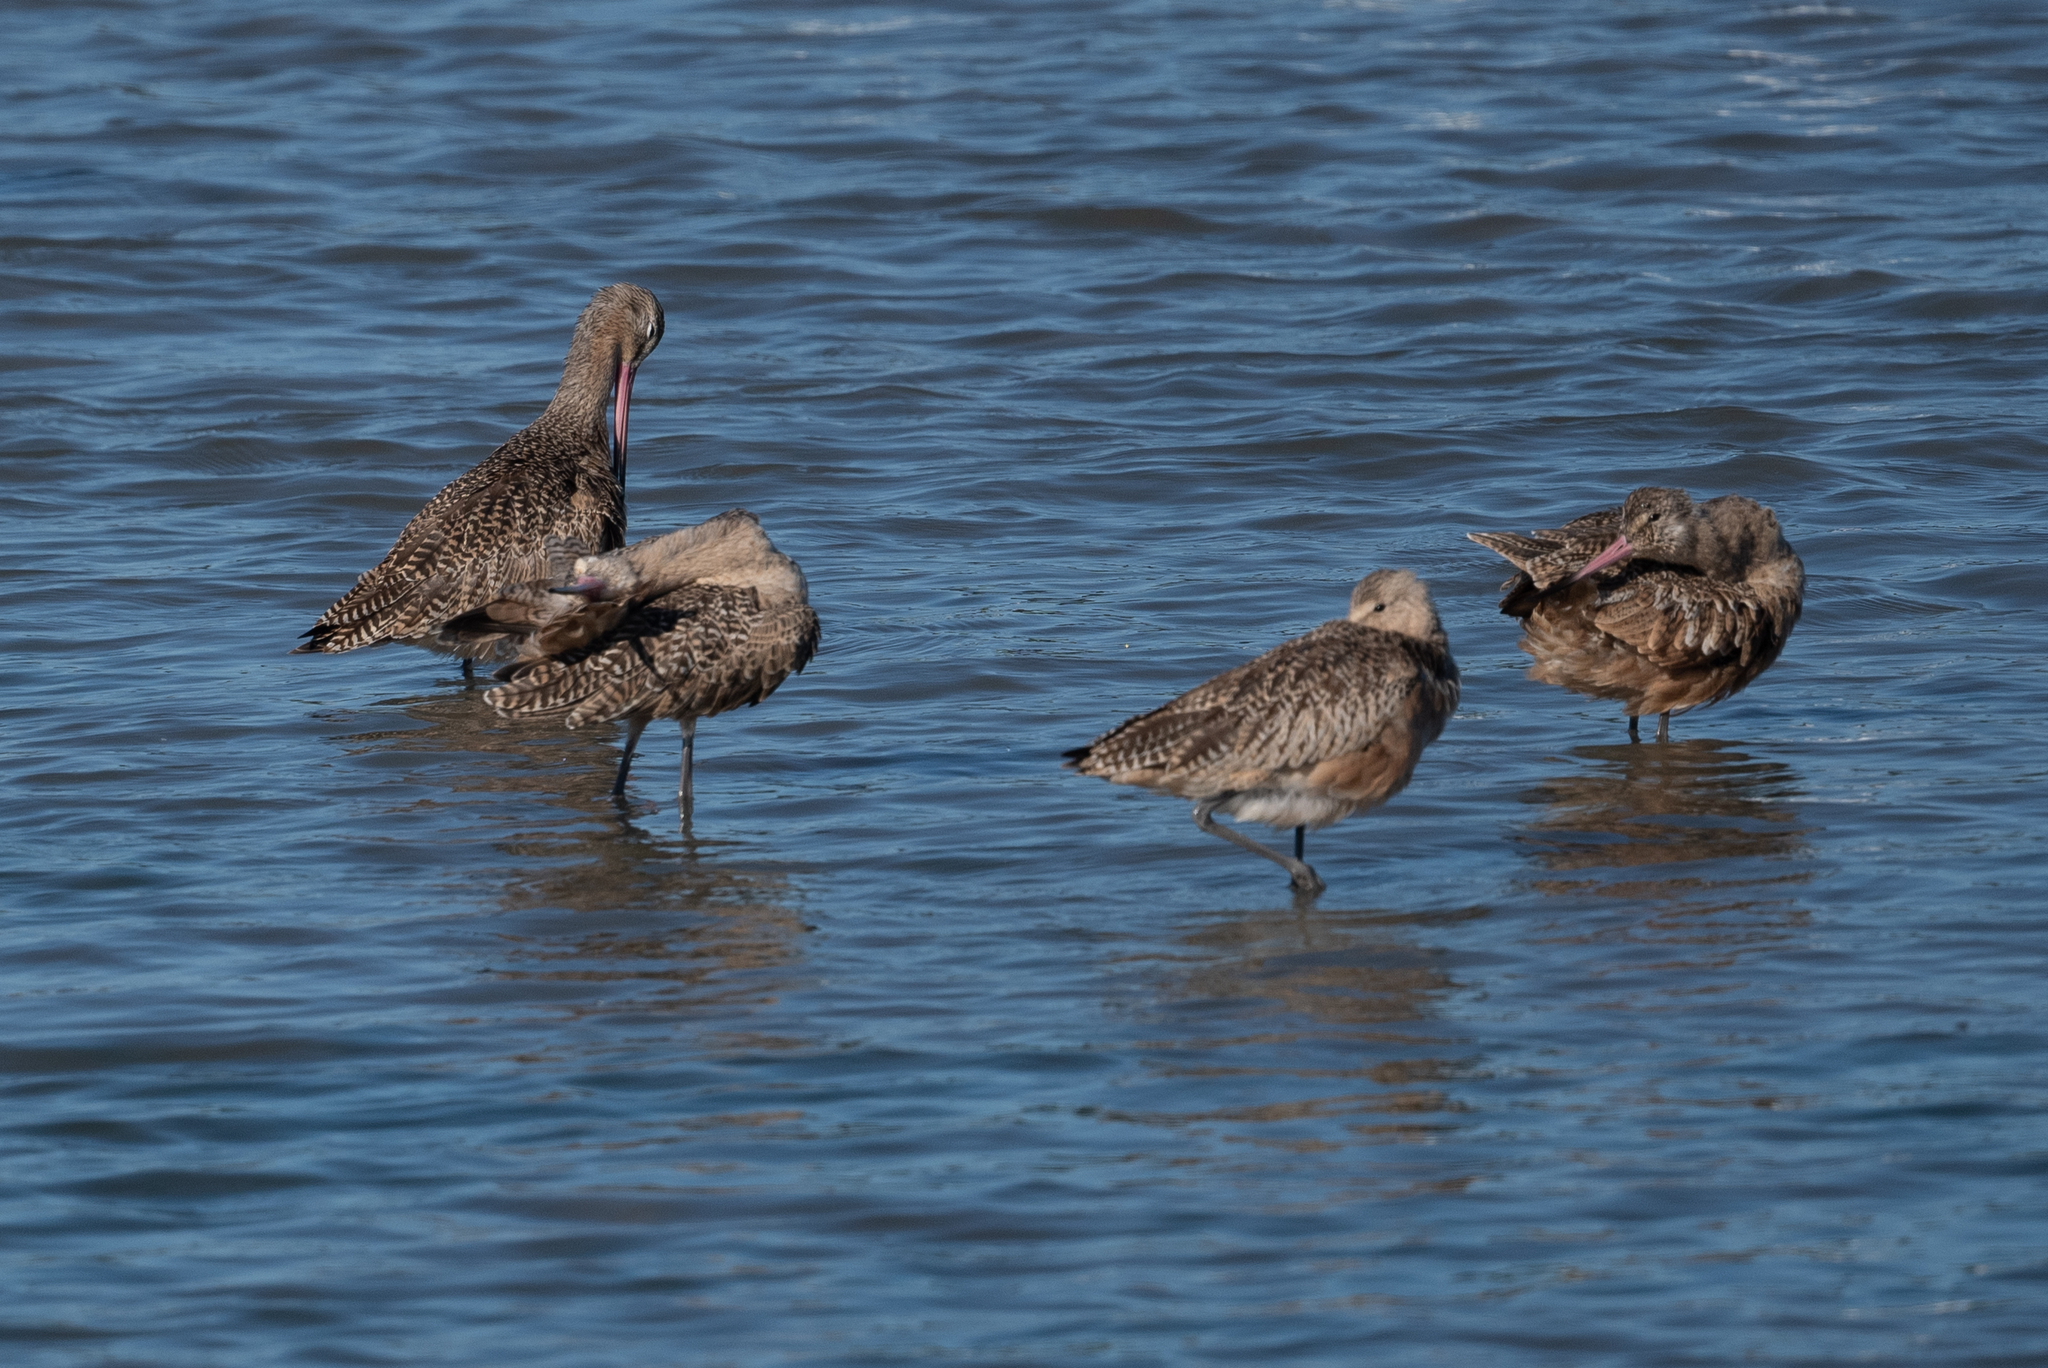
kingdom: Animalia
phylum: Chordata
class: Aves
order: Charadriiformes
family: Scolopacidae
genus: Limosa
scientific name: Limosa fedoa
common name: Marbled godwit
